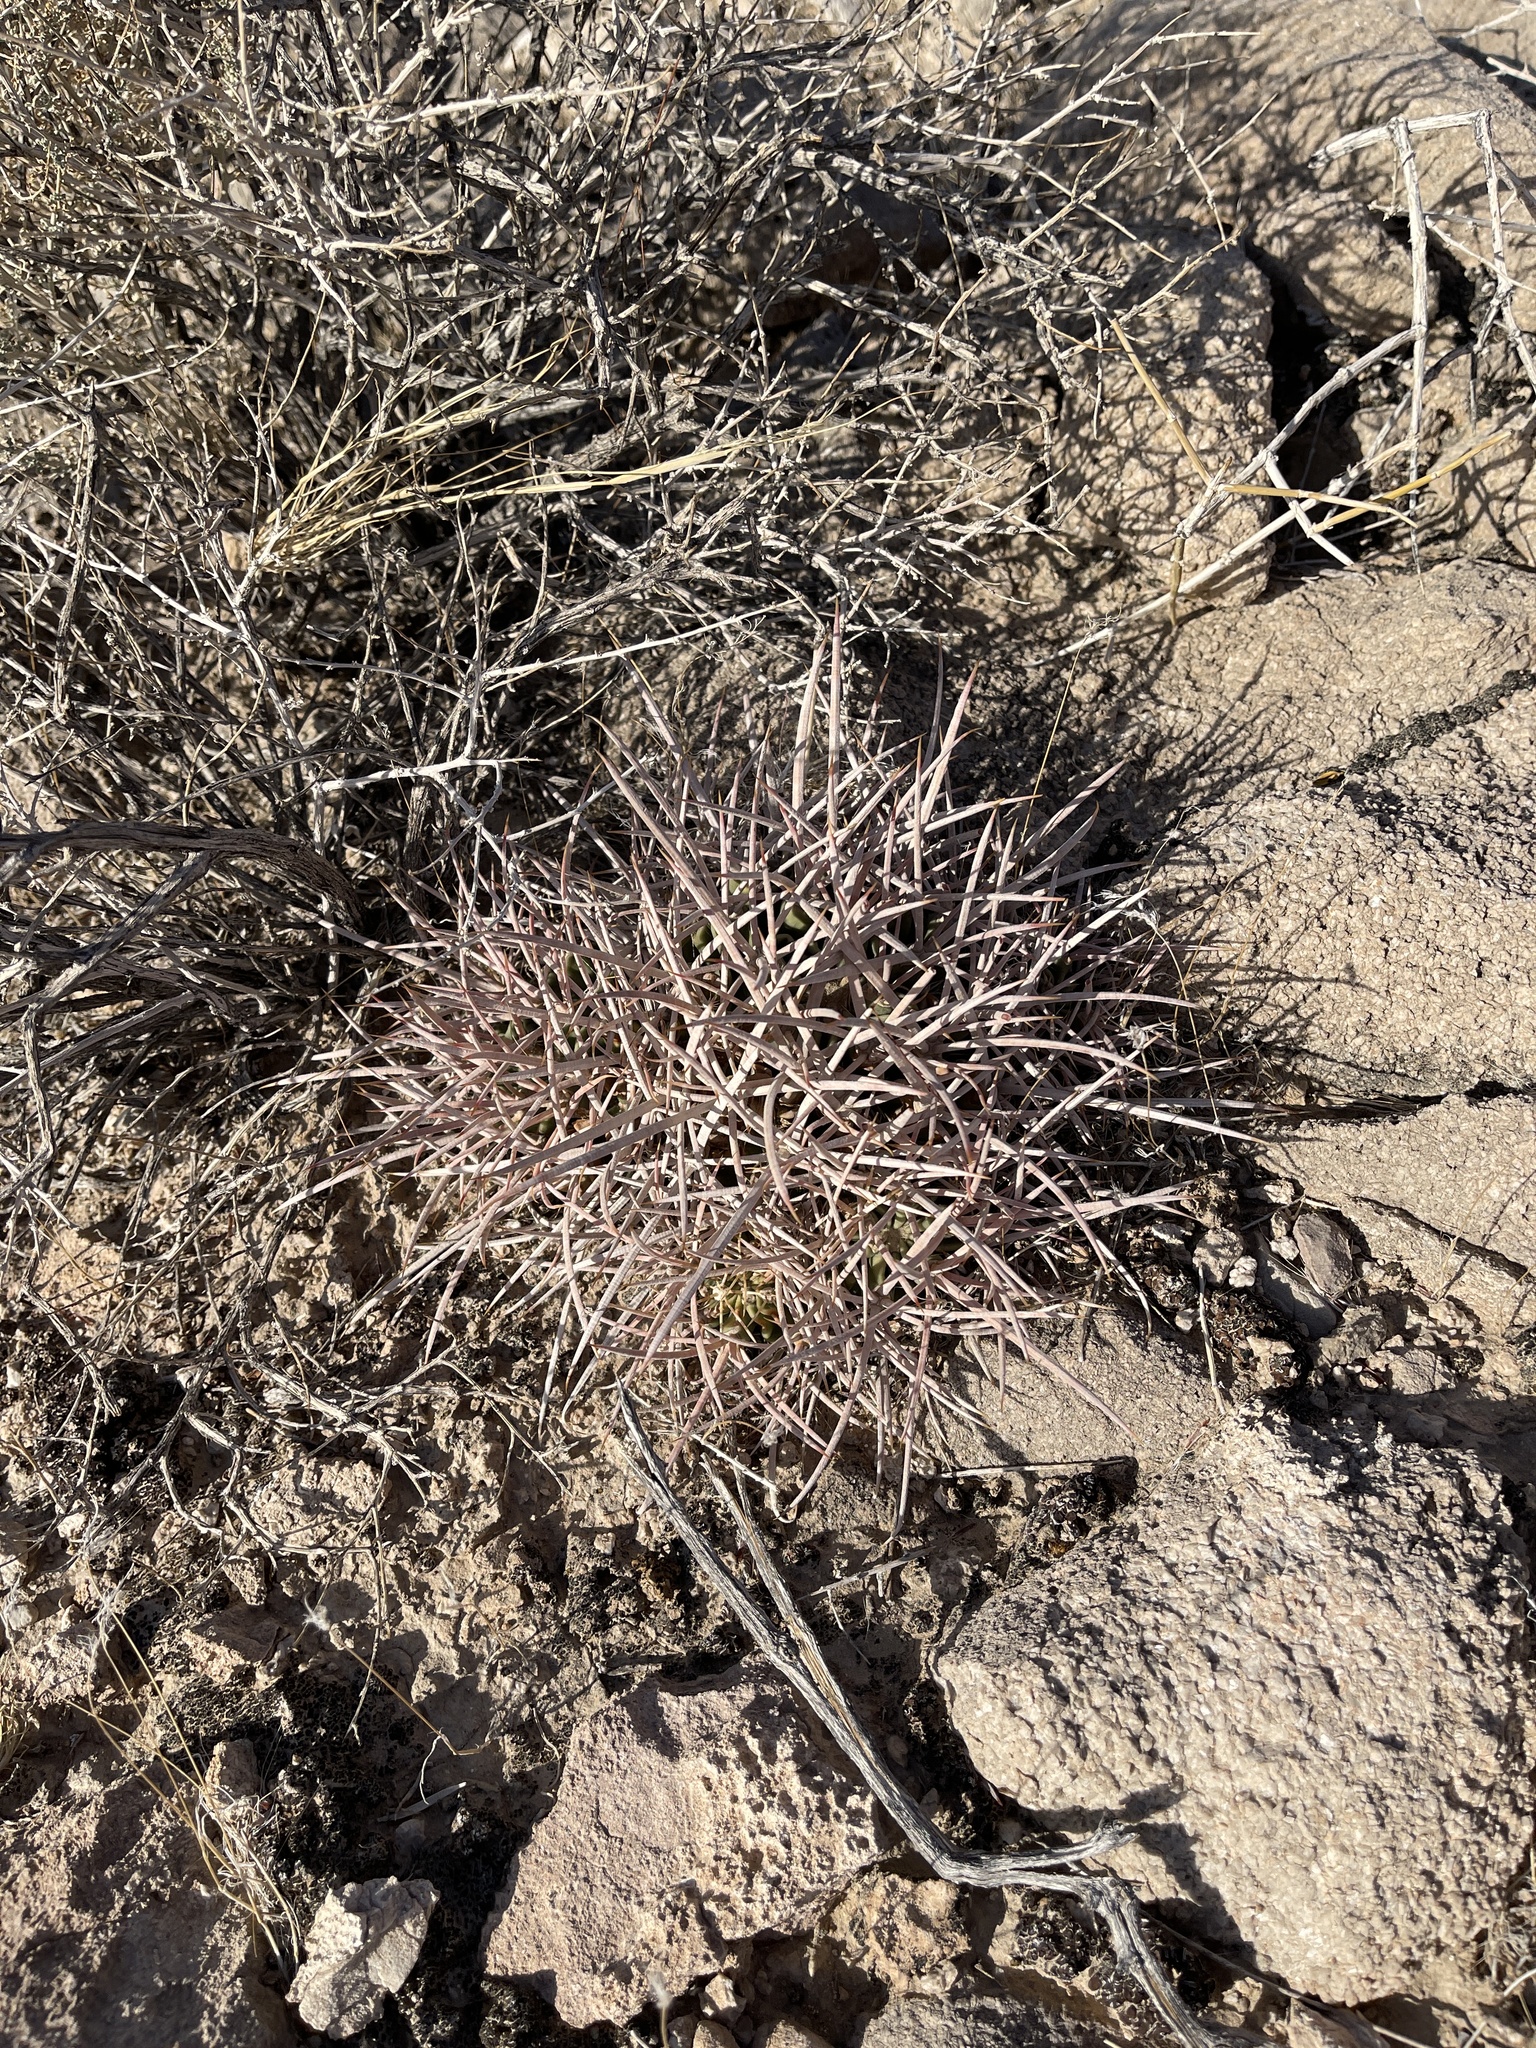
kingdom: Plantae
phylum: Tracheophyta
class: Magnoliopsida
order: Caryophyllales
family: Cactaceae
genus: Echinocactus
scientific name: Echinocactus polycephalus
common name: Cottontop cactus
